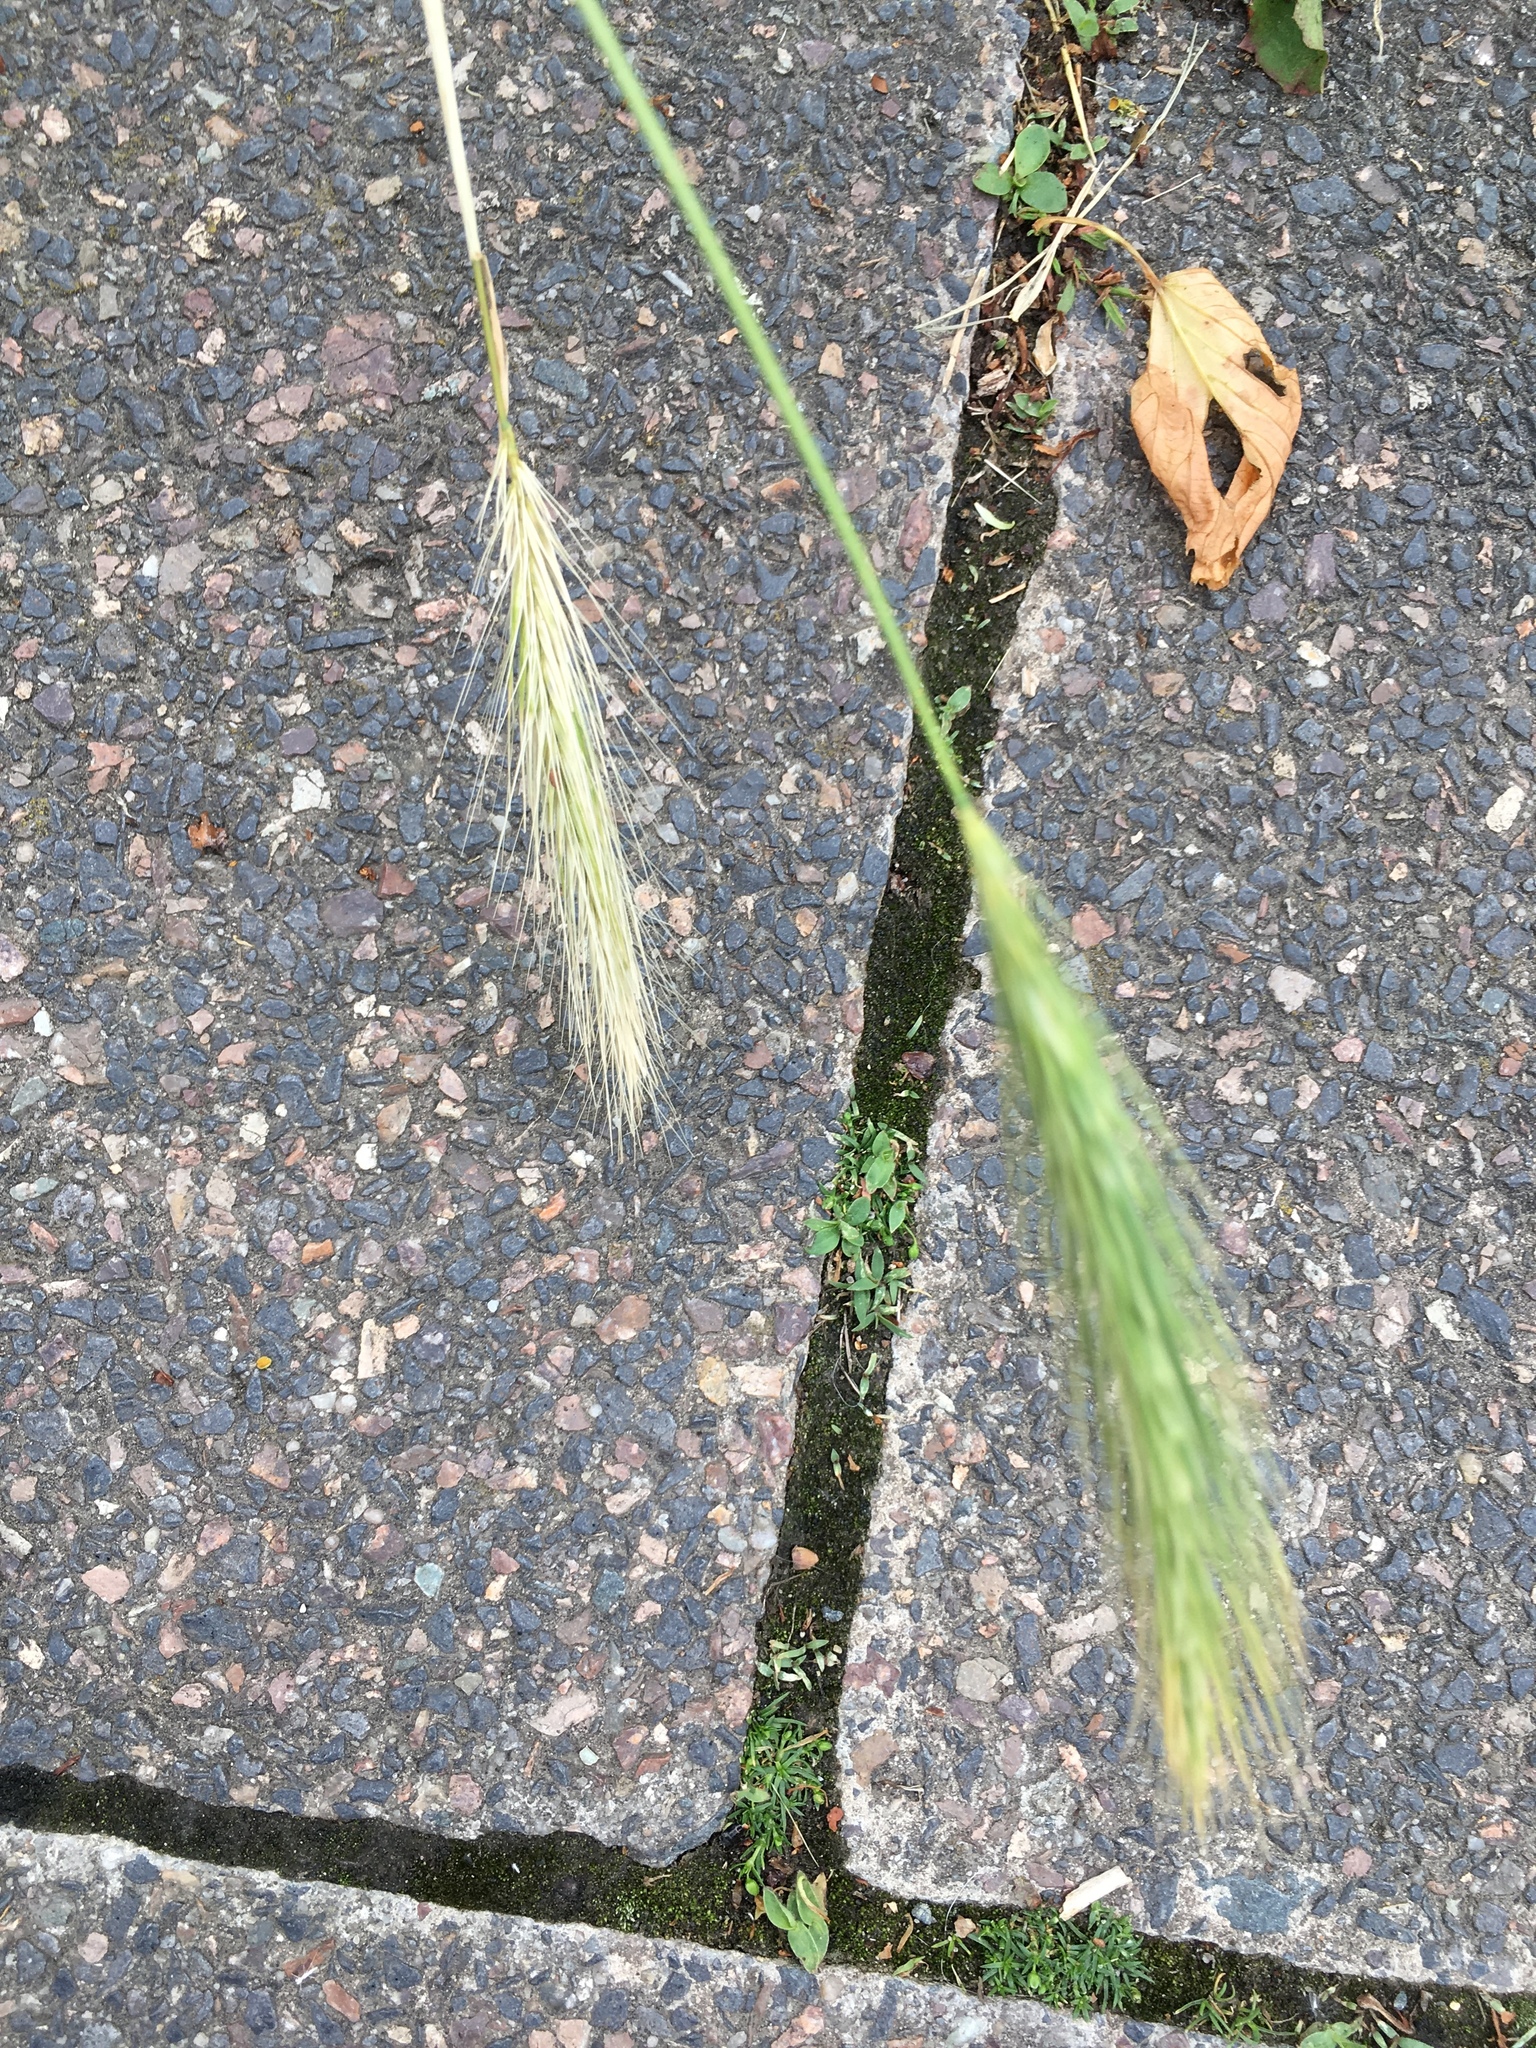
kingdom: Plantae
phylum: Tracheophyta
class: Liliopsida
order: Poales
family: Poaceae
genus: Hordeum
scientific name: Hordeum murinum
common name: Wall barley
